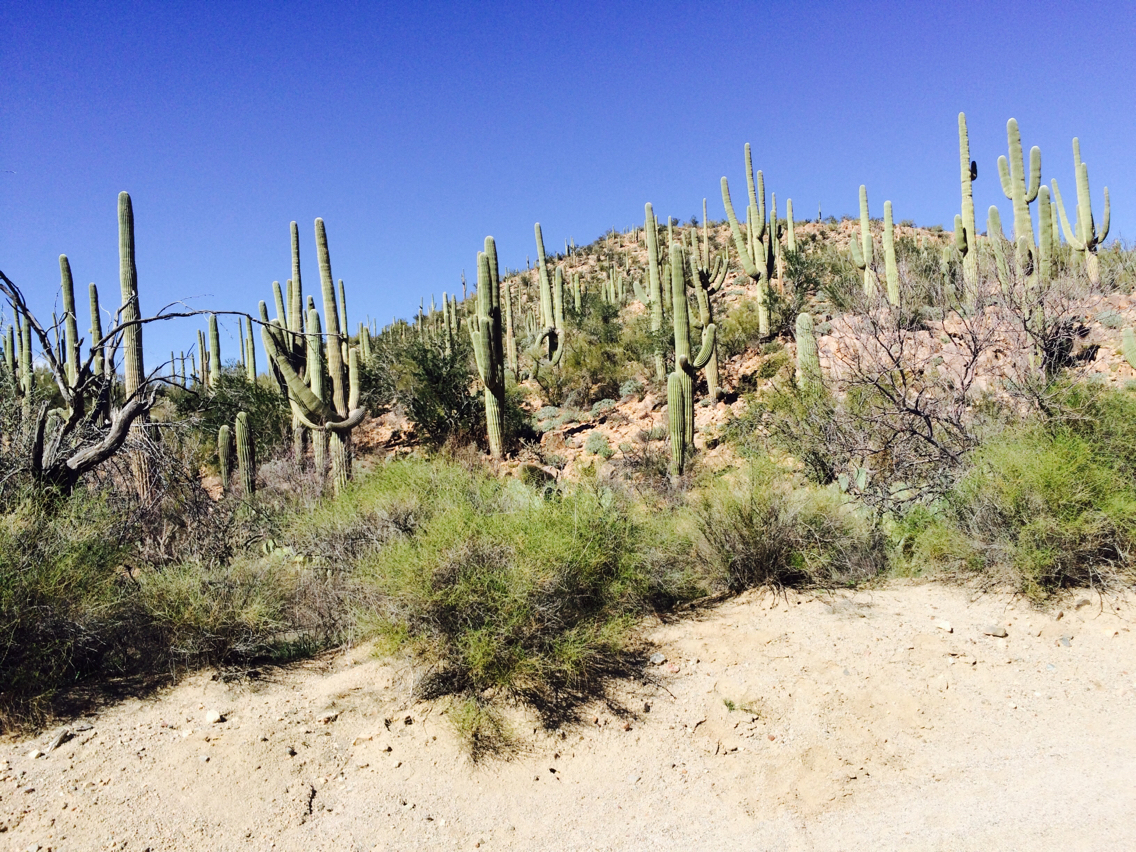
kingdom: Plantae
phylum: Tracheophyta
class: Magnoliopsida
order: Caryophyllales
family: Cactaceae
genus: Carnegiea
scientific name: Carnegiea gigantea
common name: Saguaro
